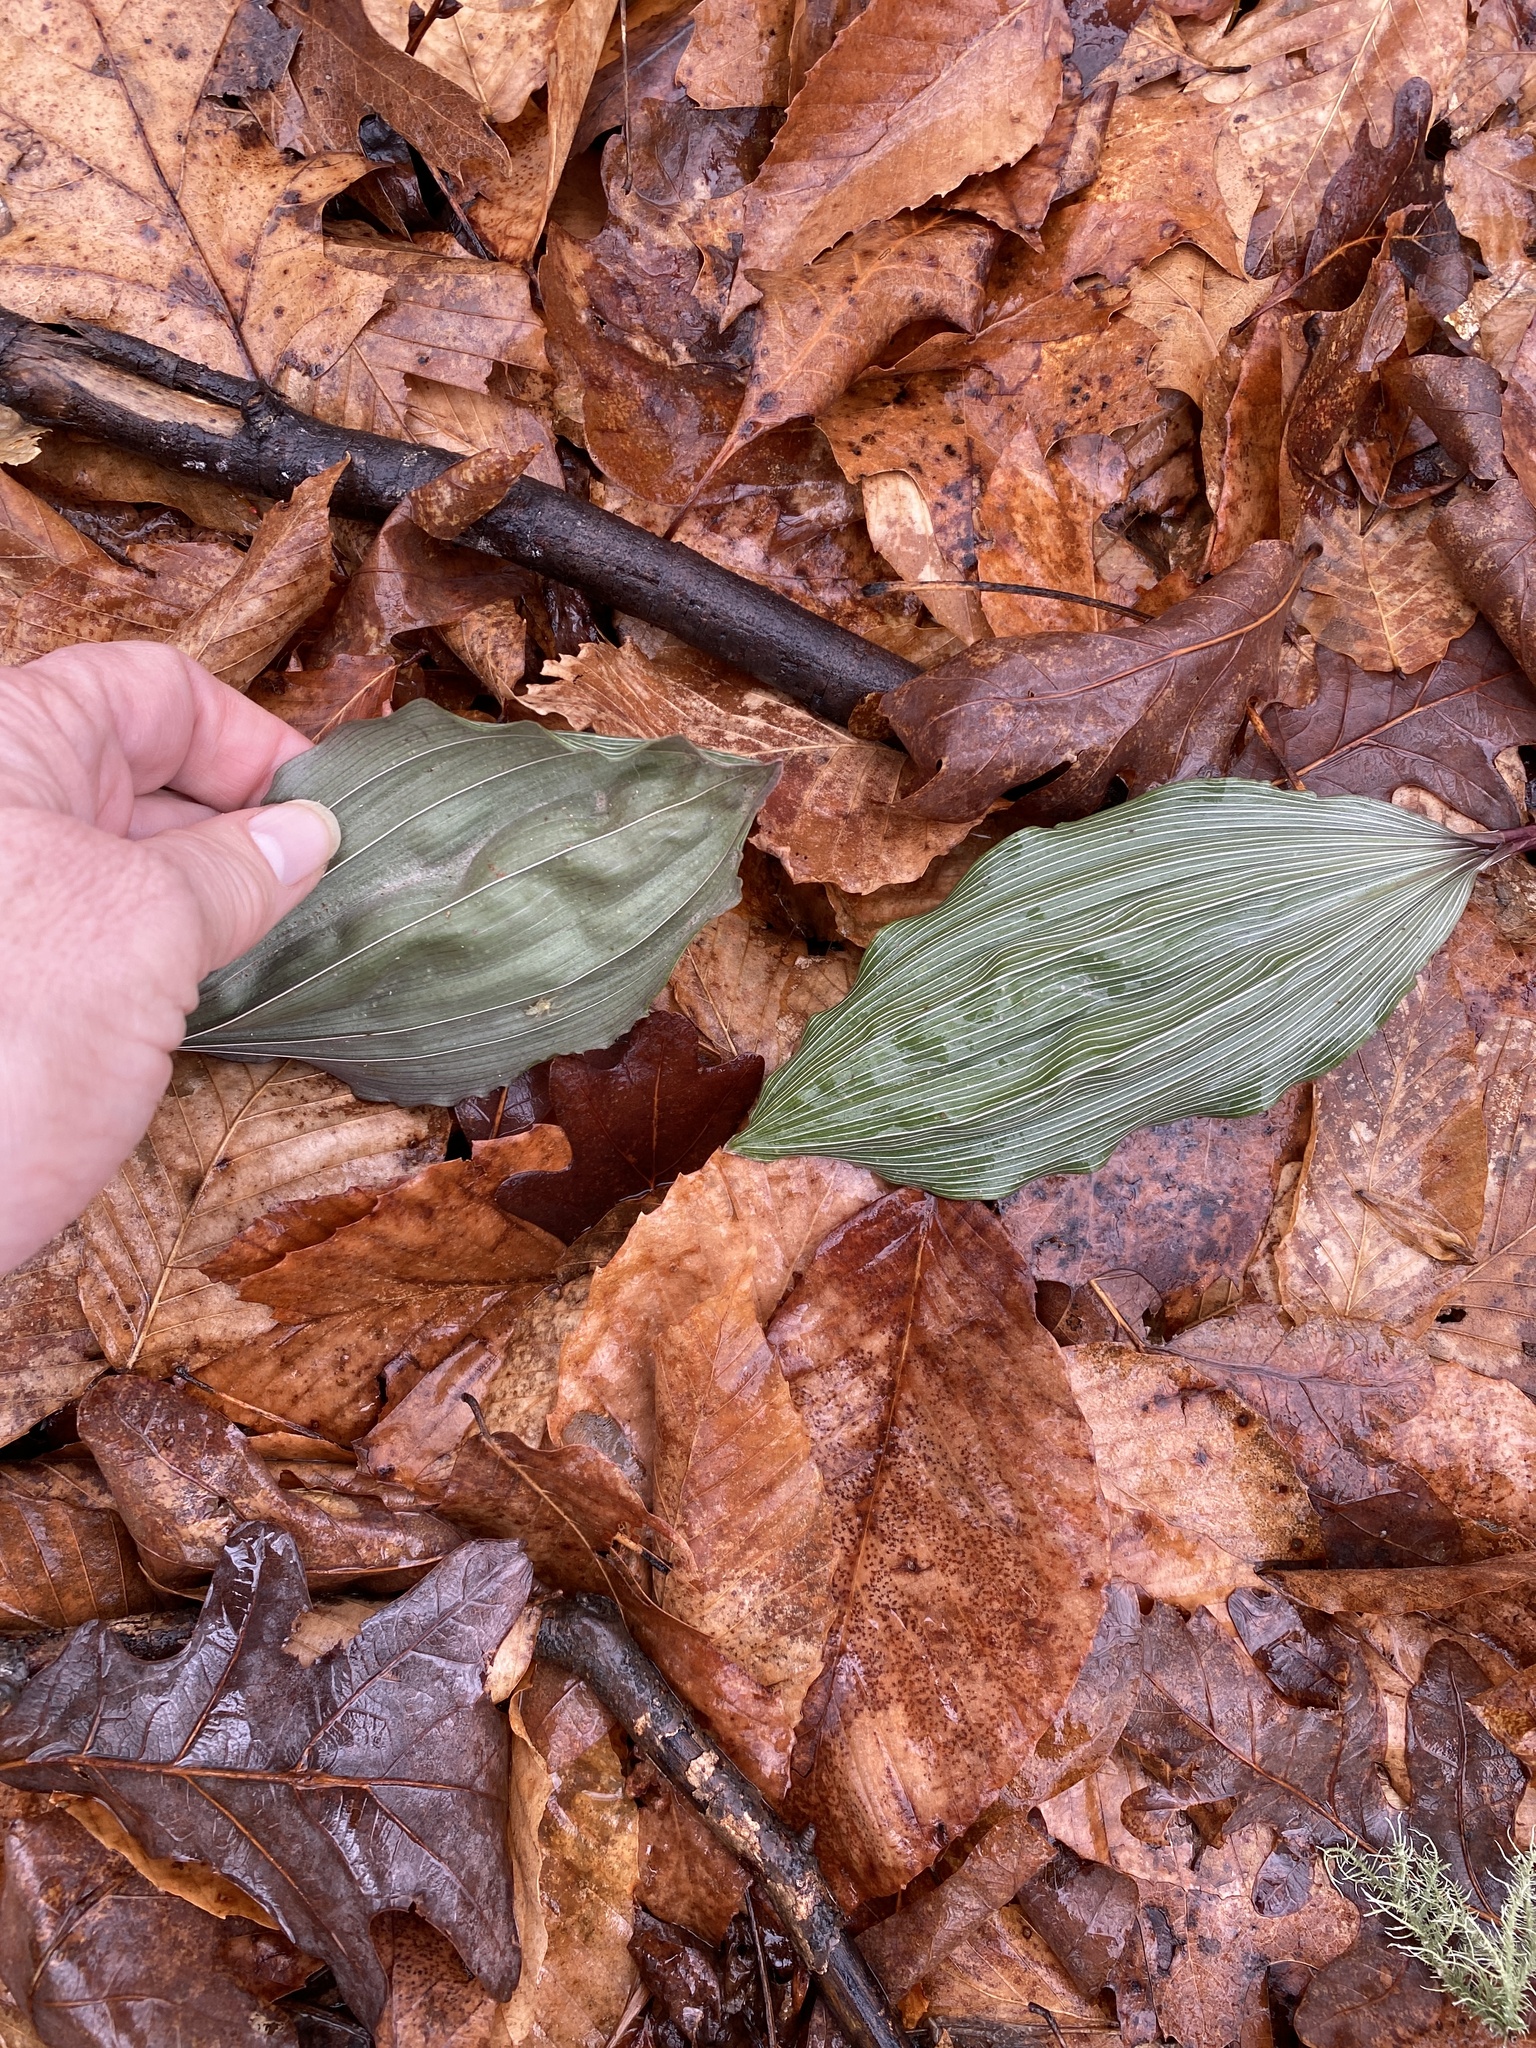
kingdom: Plantae
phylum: Tracheophyta
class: Liliopsida
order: Asparagales
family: Orchidaceae
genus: Aplectrum
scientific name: Aplectrum hyemale
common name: Adam-and-eve
